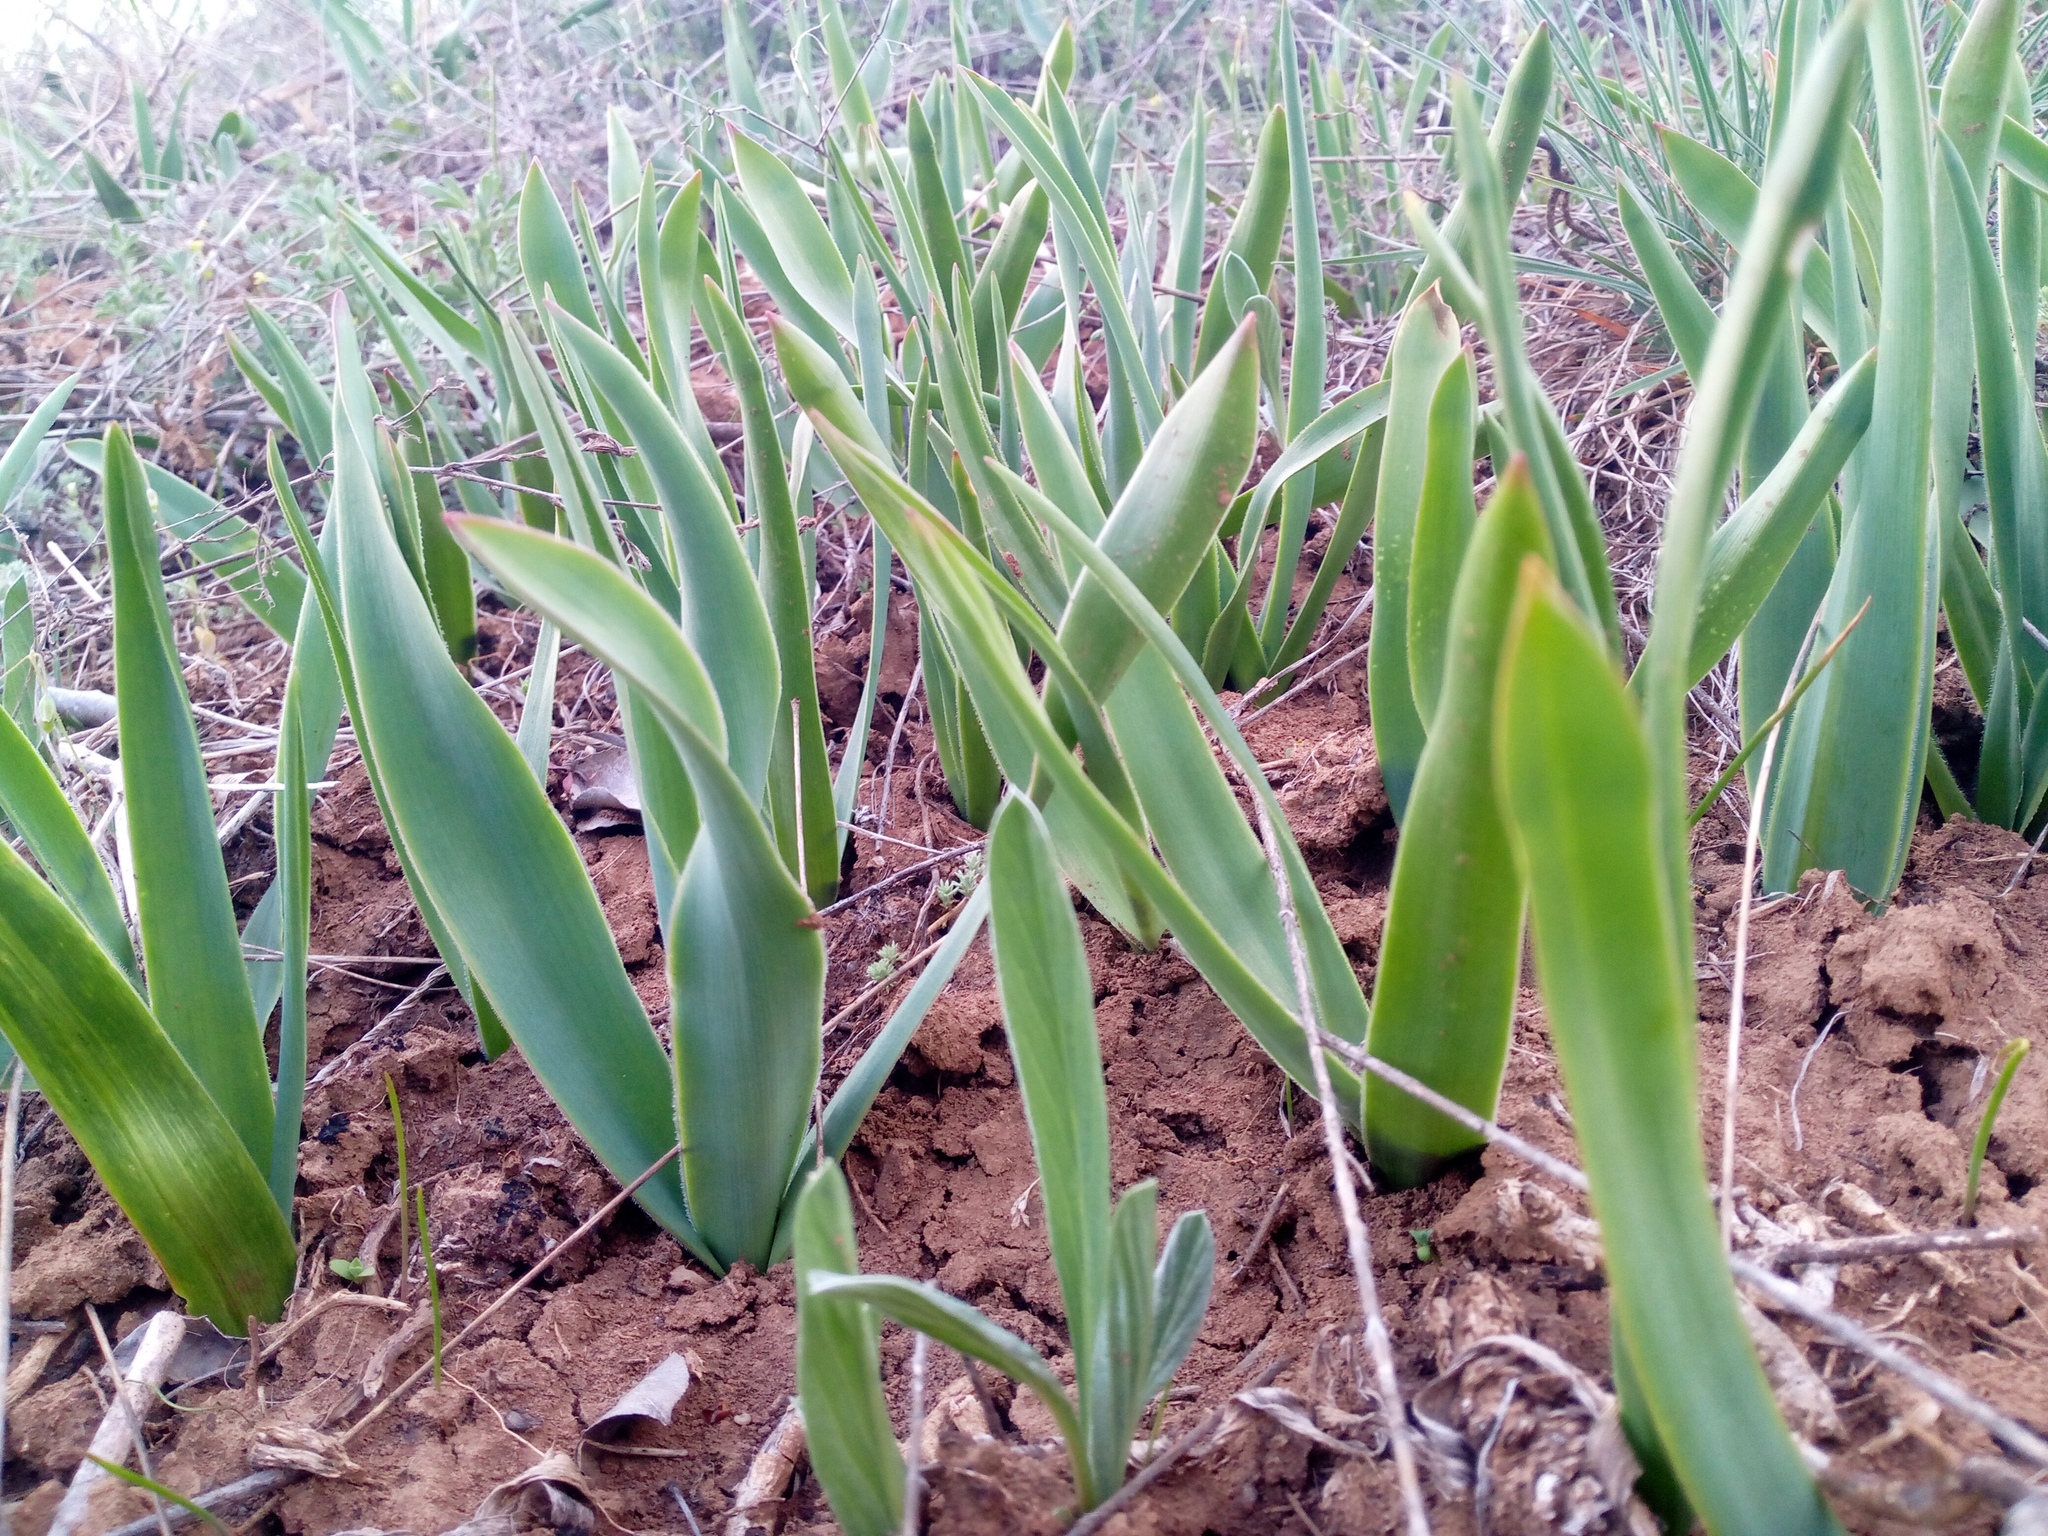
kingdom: Plantae
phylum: Tracheophyta
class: Liliopsida
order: Asparagales
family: Asparagaceae
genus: Bellevalia
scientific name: Bellevalia speciosa
